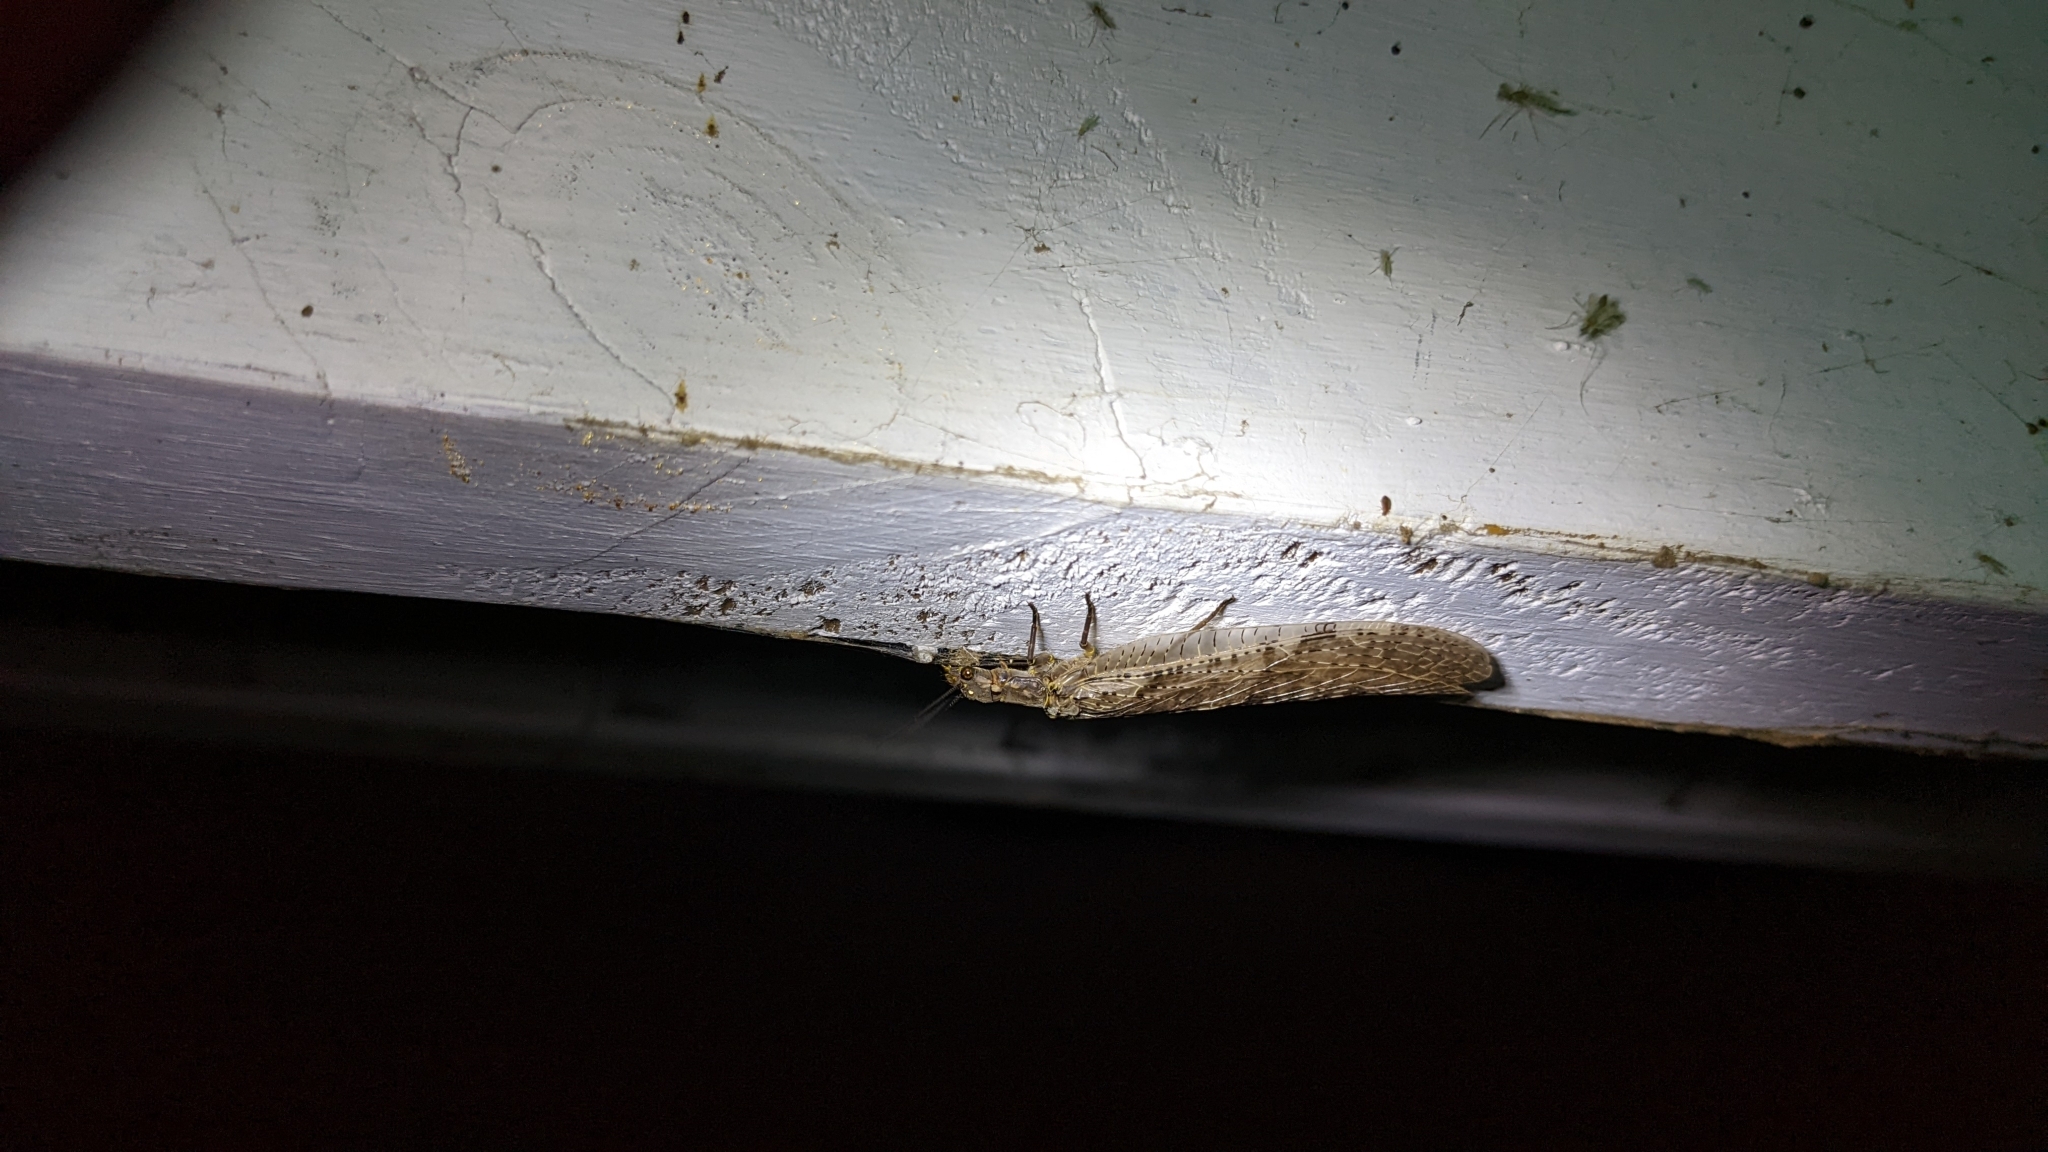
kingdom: Animalia
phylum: Arthropoda
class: Insecta
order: Megaloptera
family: Corydalidae
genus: Chauliodes
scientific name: Chauliodes pectinicornis
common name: Summer fishfly
